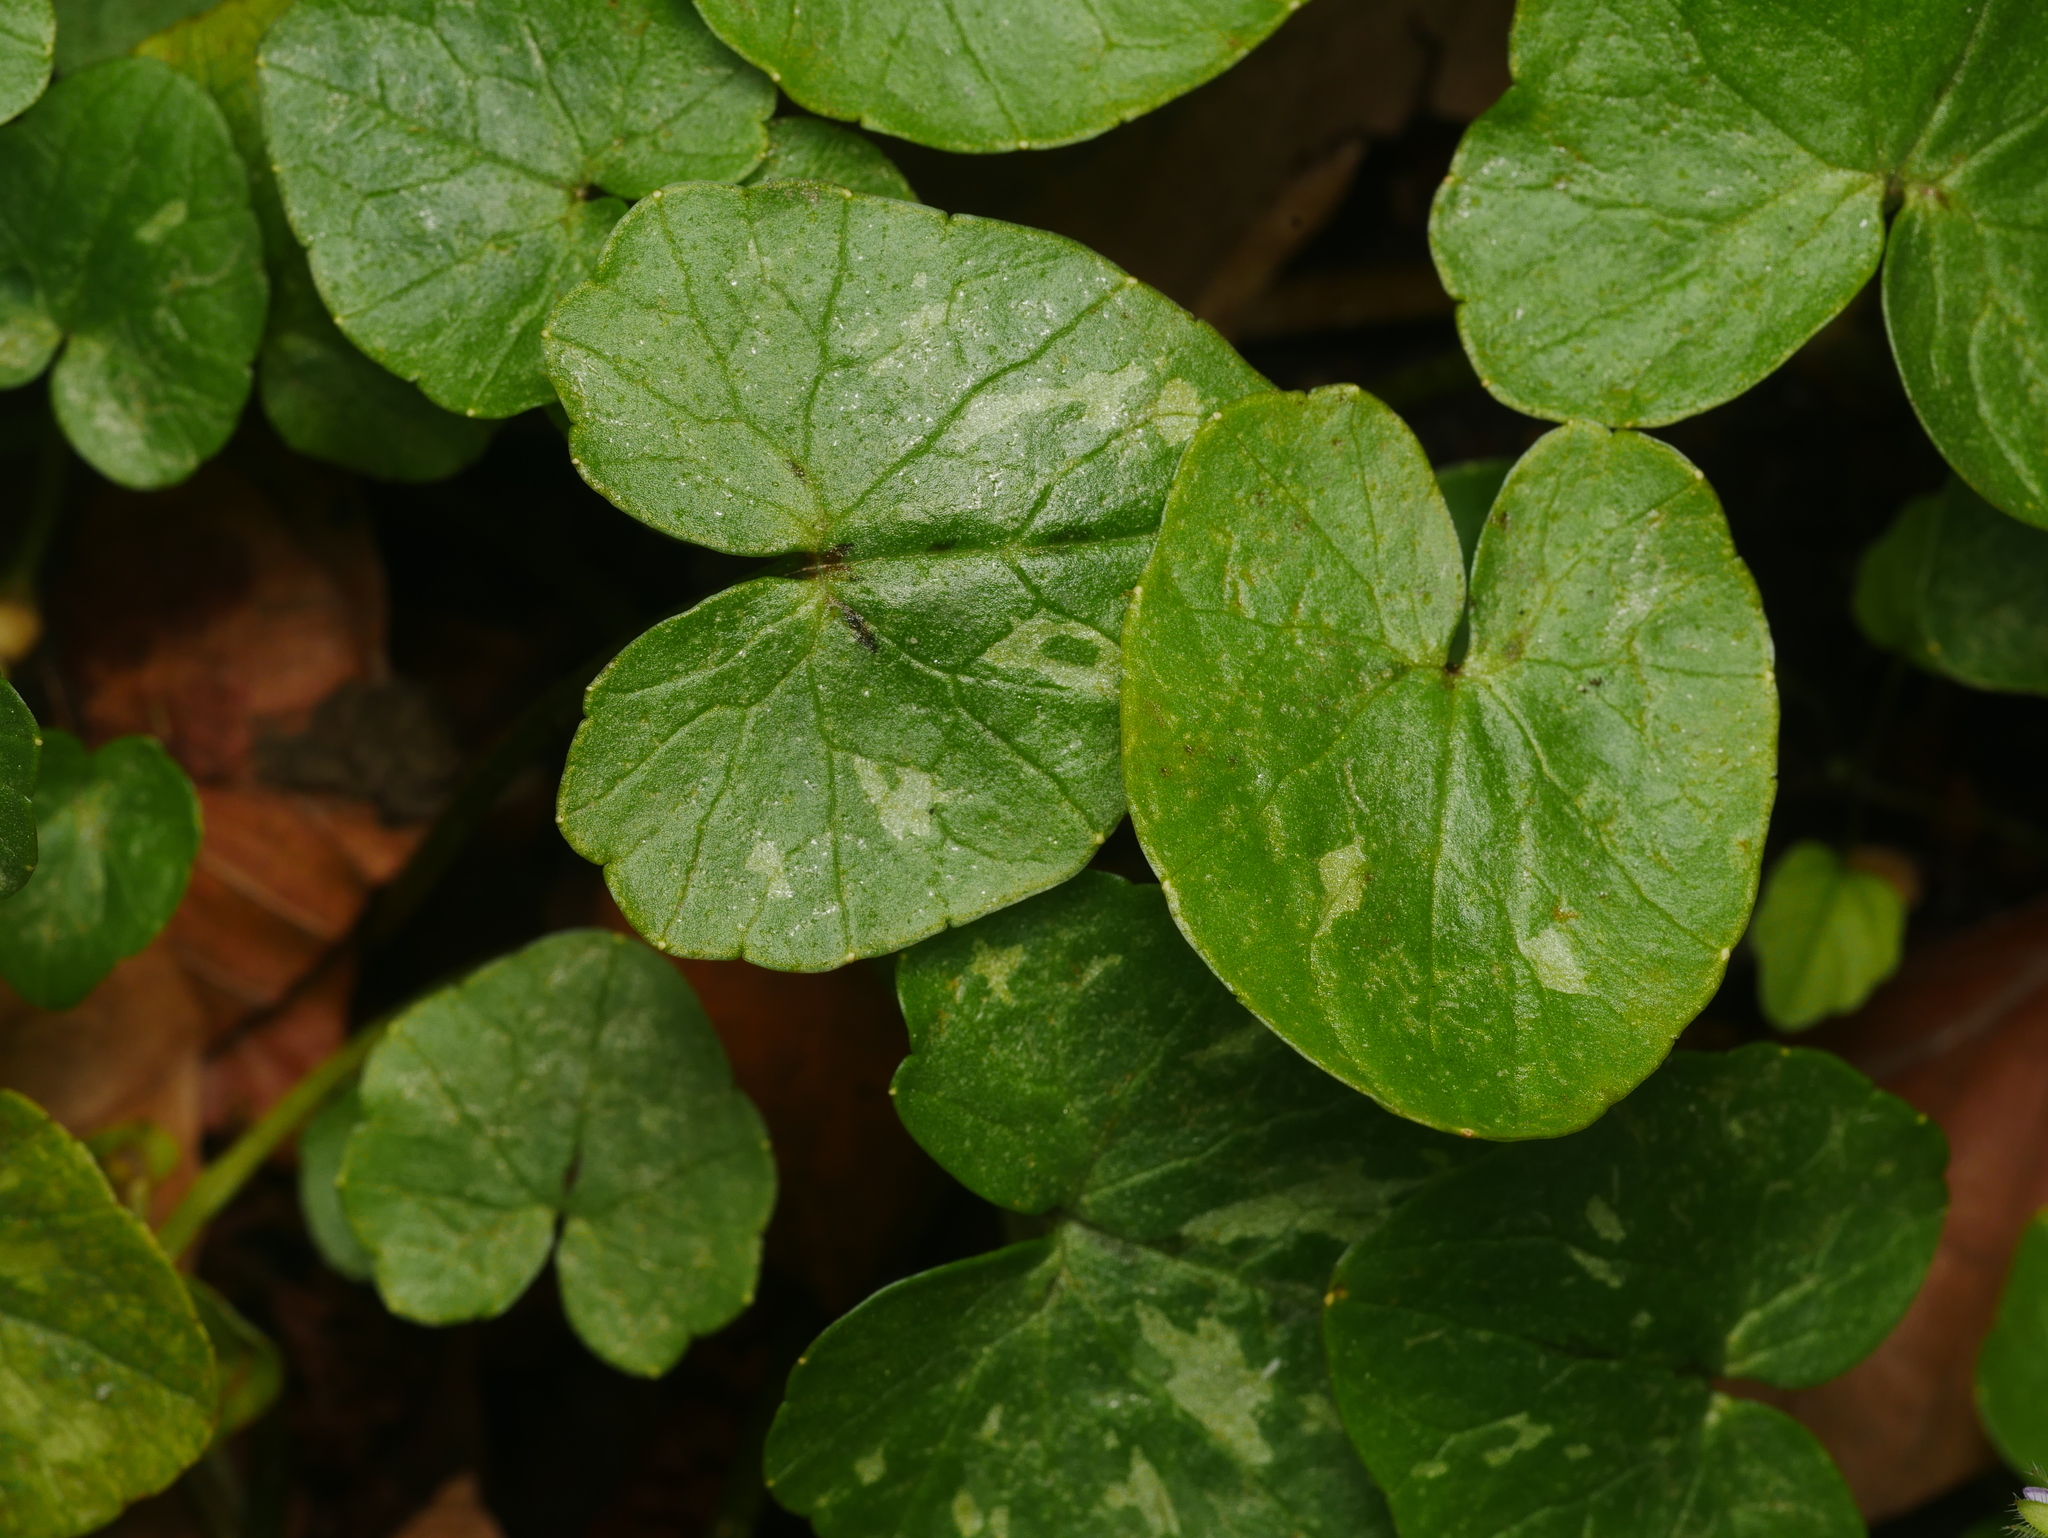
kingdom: Plantae
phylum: Tracheophyta
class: Magnoliopsida
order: Ranunculales
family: Ranunculaceae
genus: Ficaria
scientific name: Ficaria verna
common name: Lesser celandine
